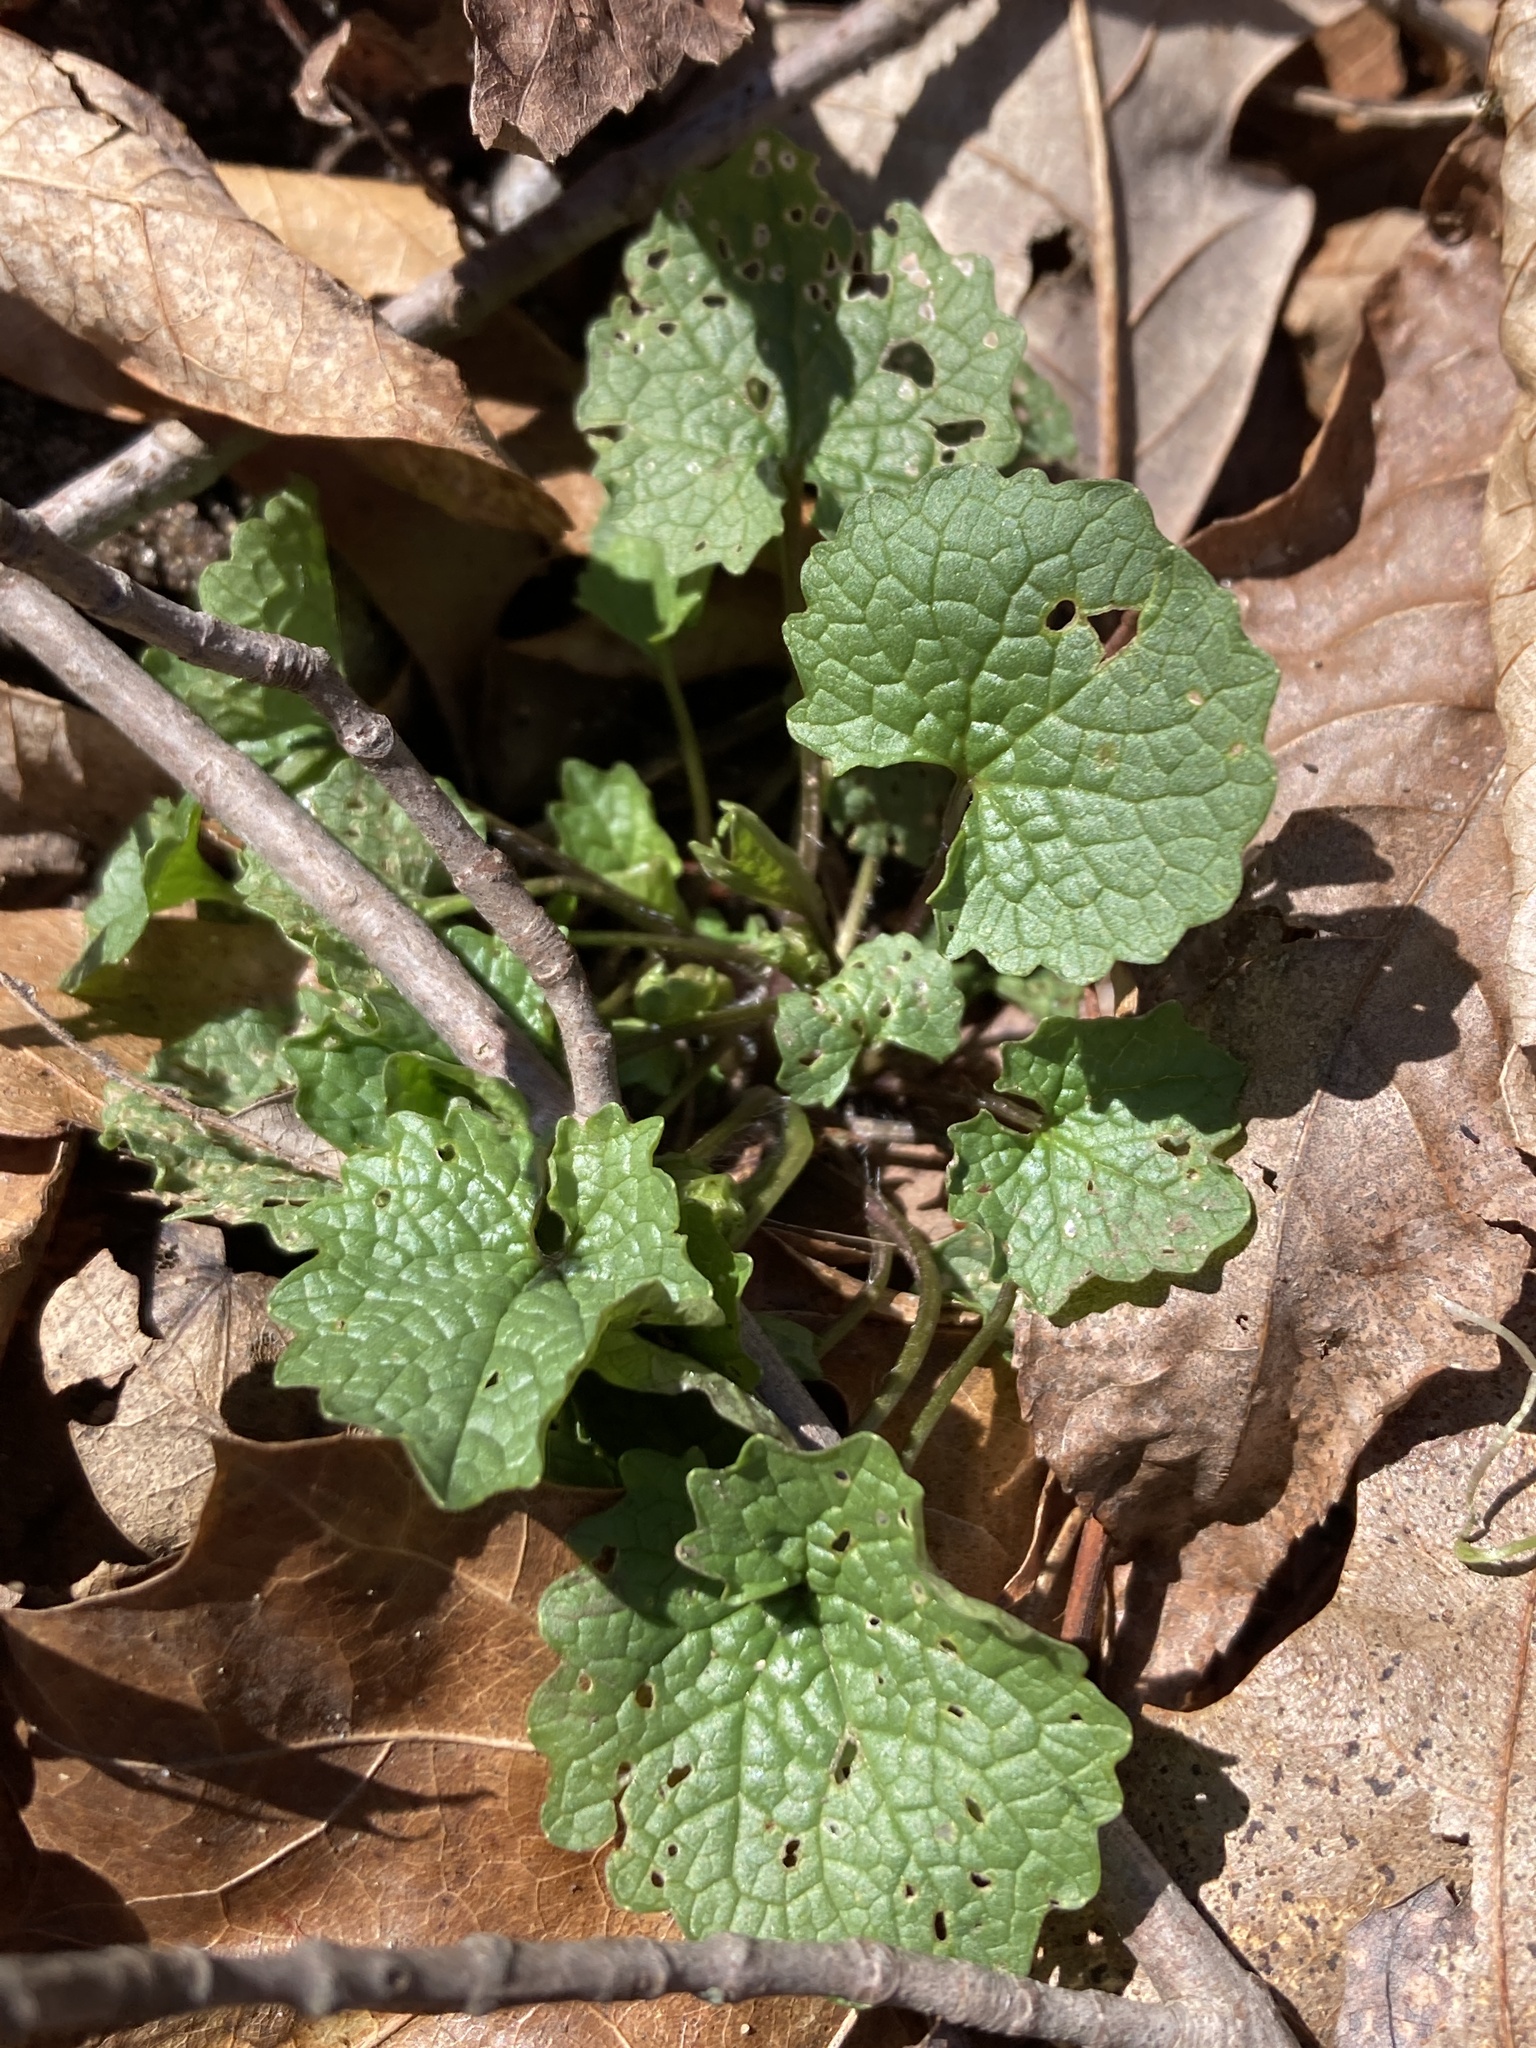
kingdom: Plantae
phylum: Tracheophyta
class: Magnoliopsida
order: Brassicales
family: Brassicaceae
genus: Alliaria
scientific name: Alliaria petiolata
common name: Garlic mustard
